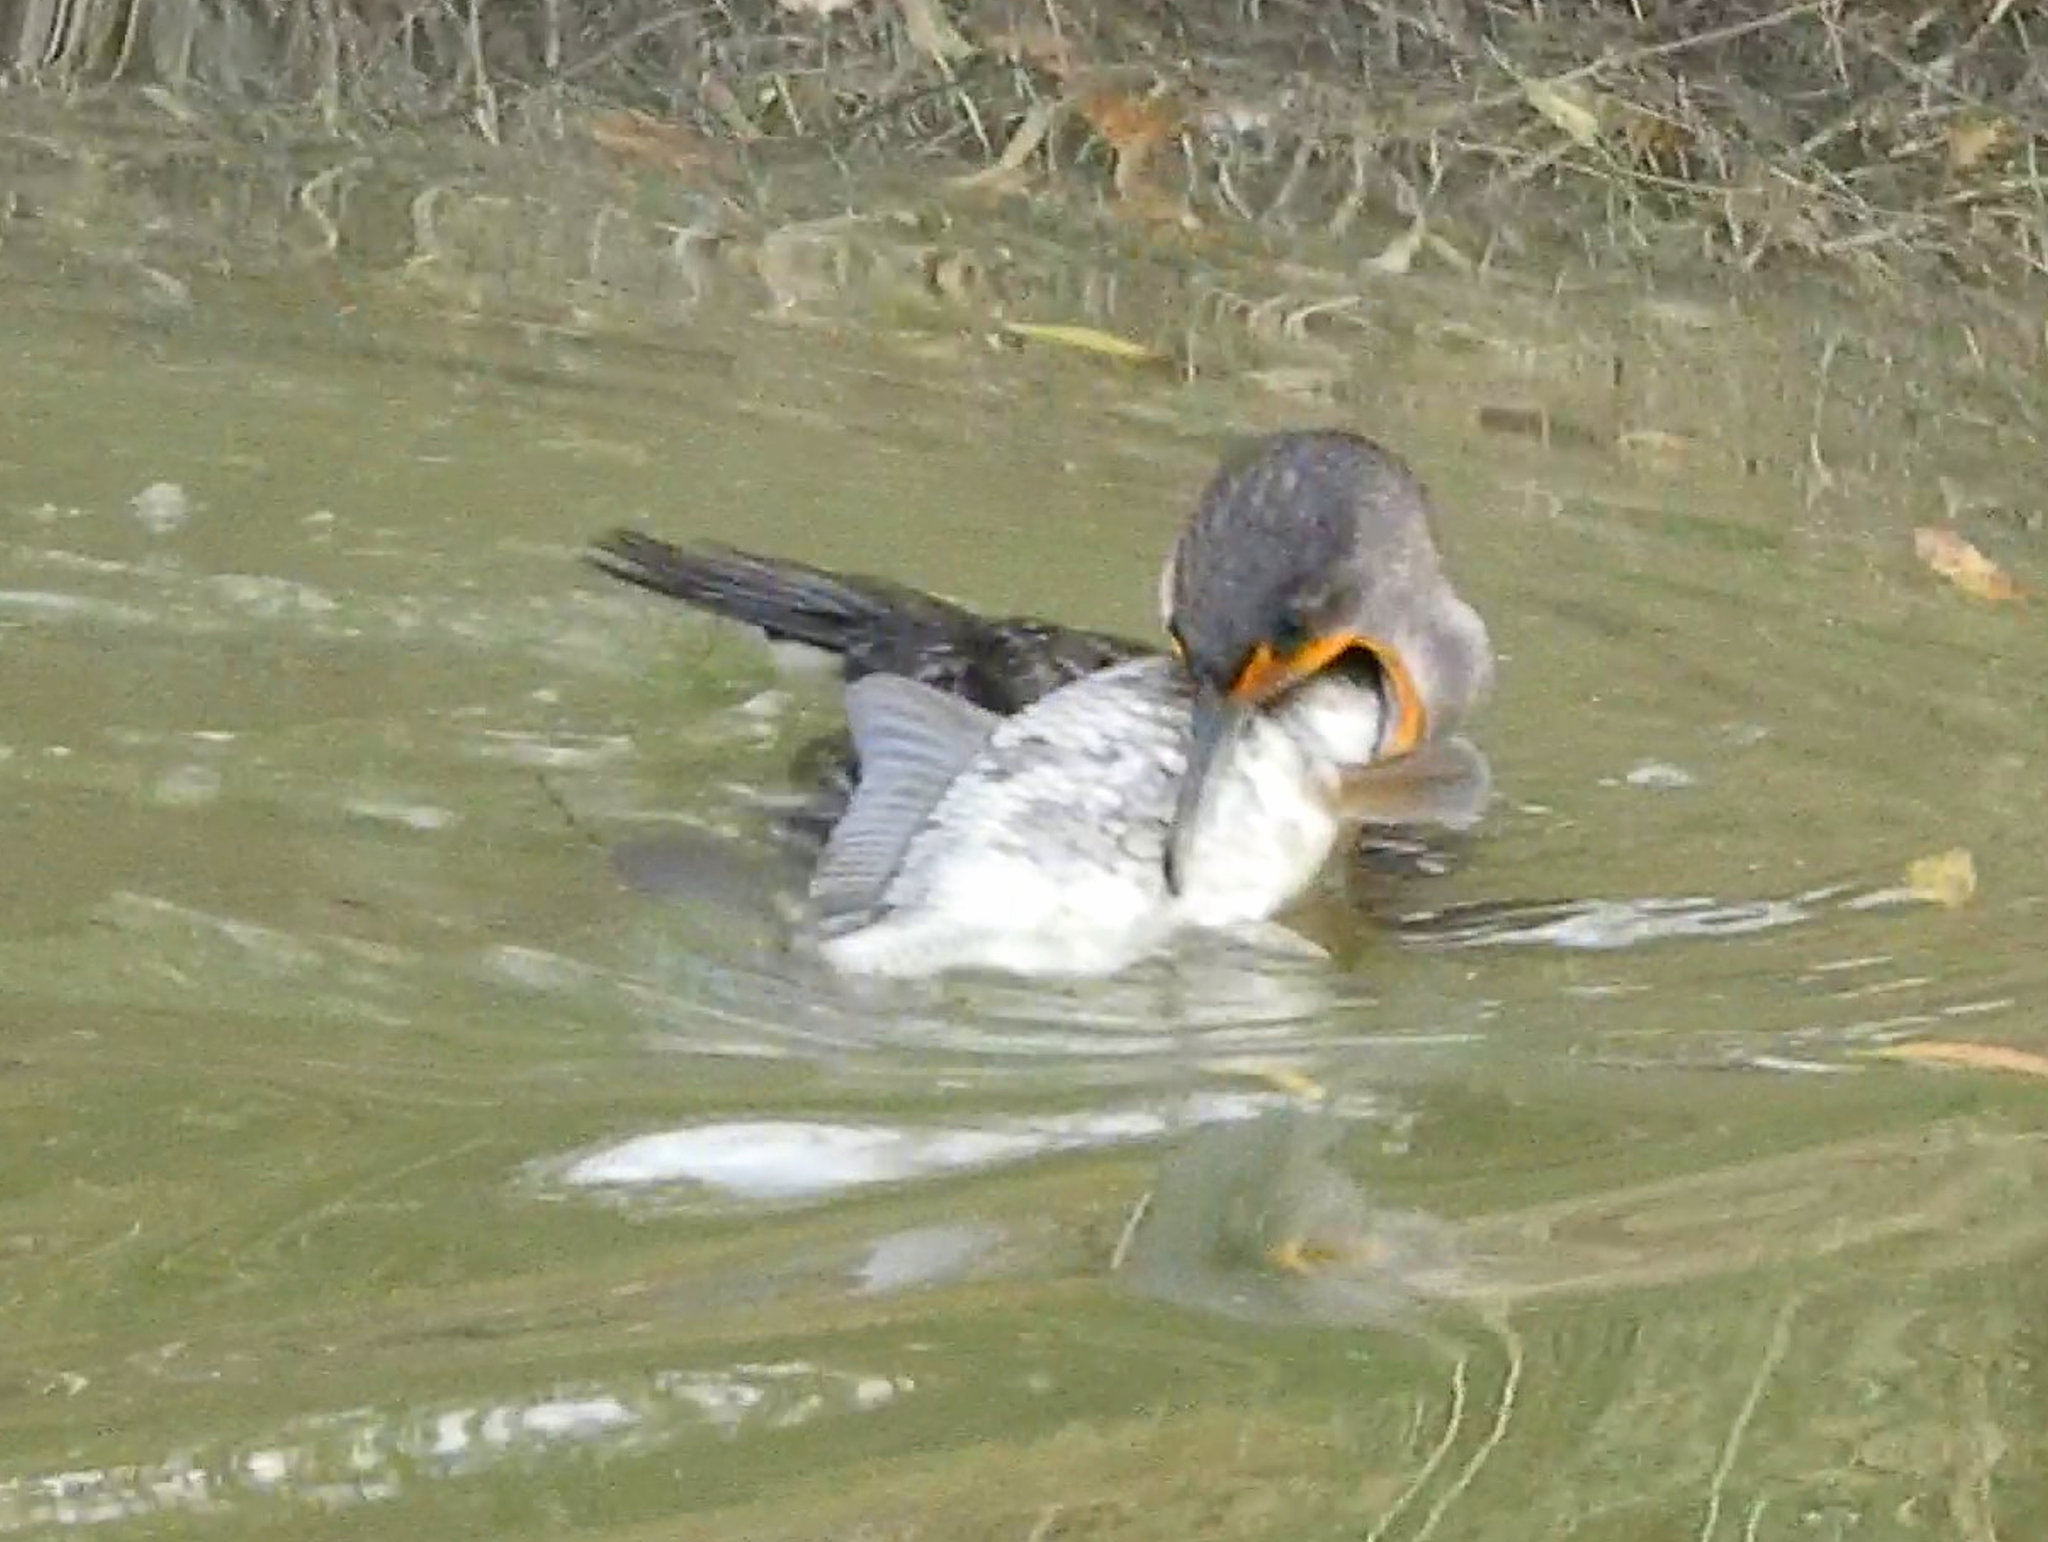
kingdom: Animalia
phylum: Chordata
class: Aves
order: Suliformes
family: Phalacrocoracidae
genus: Phalacrocorax
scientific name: Phalacrocorax auritus
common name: Double-crested cormorant
